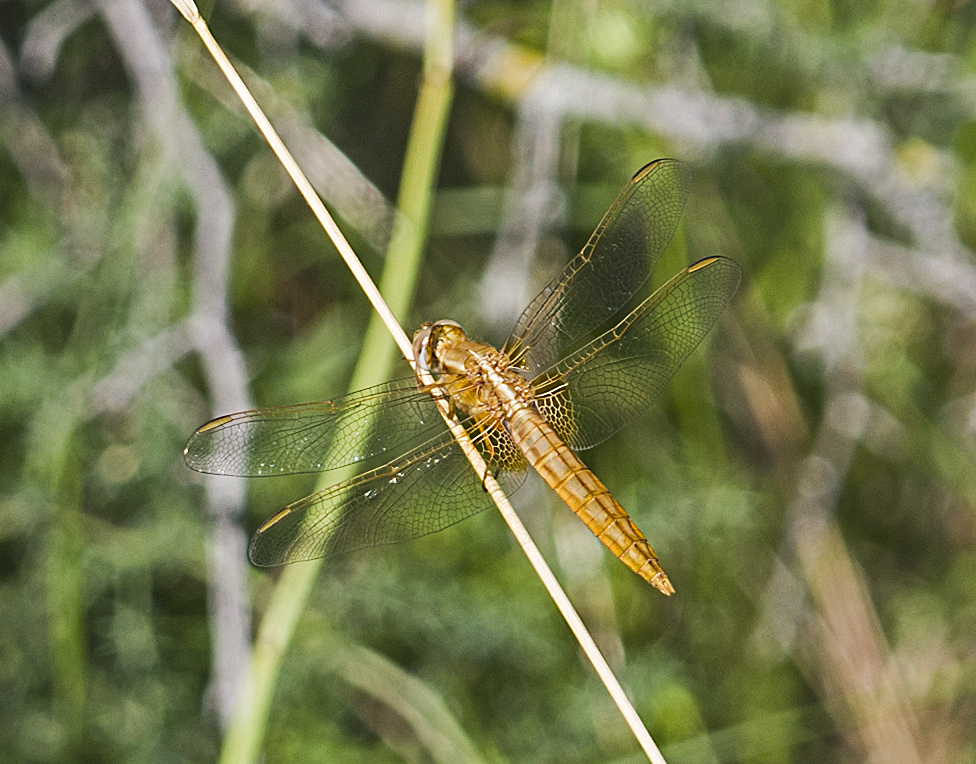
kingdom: Animalia
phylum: Arthropoda
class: Insecta
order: Odonata
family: Libellulidae
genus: Crocothemis
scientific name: Crocothemis erythraea
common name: Scarlet dragonfly
